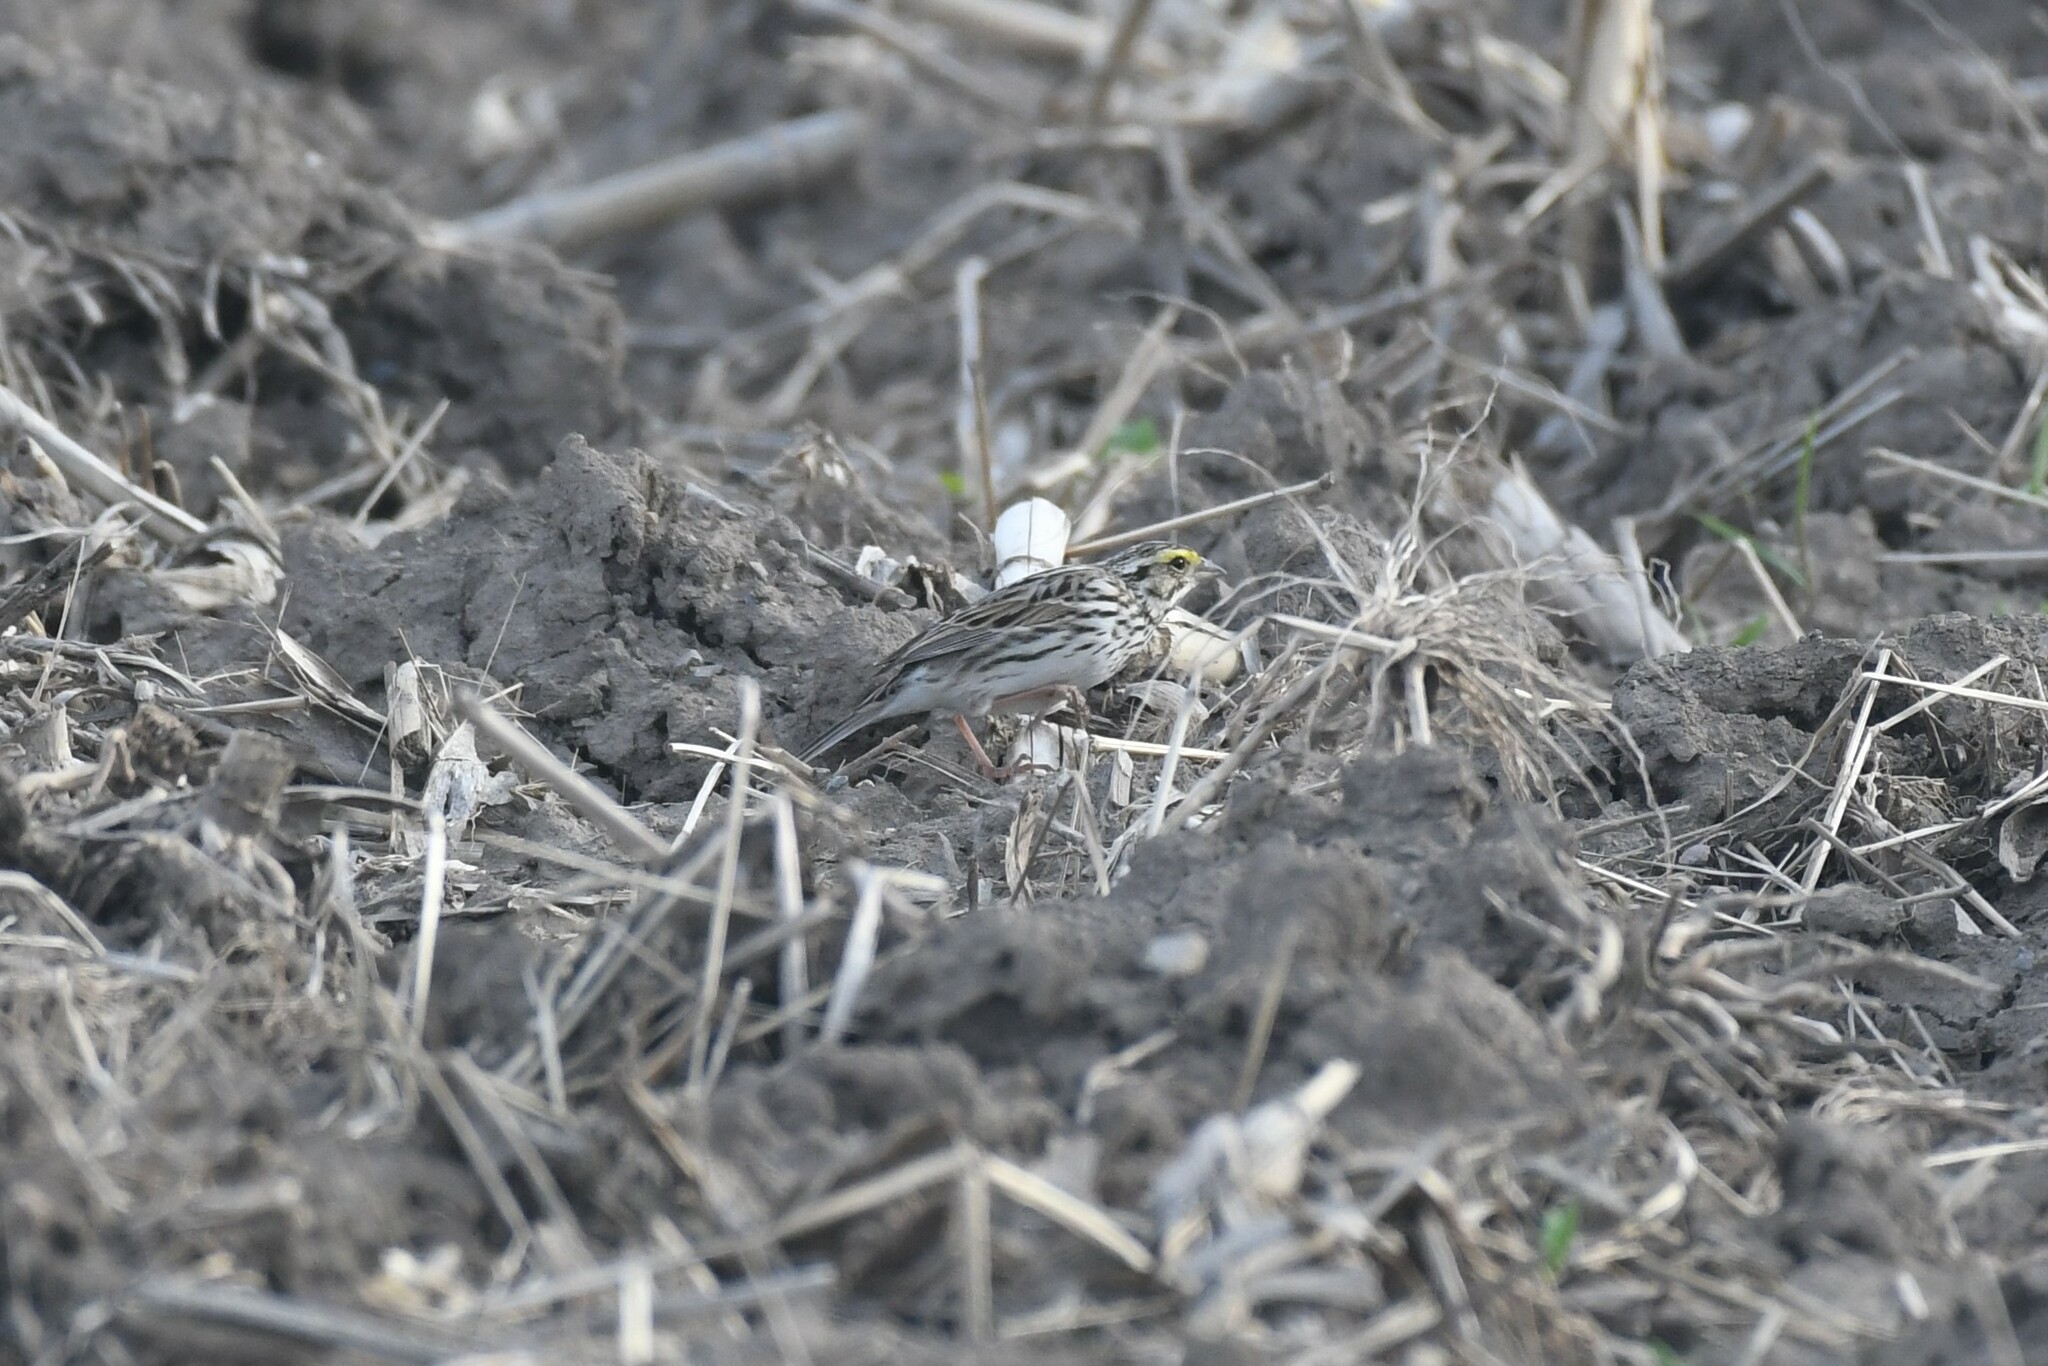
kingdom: Animalia
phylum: Chordata
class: Aves
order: Passeriformes
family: Passerellidae
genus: Passerculus
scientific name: Passerculus sandwichensis
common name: Savannah sparrow
